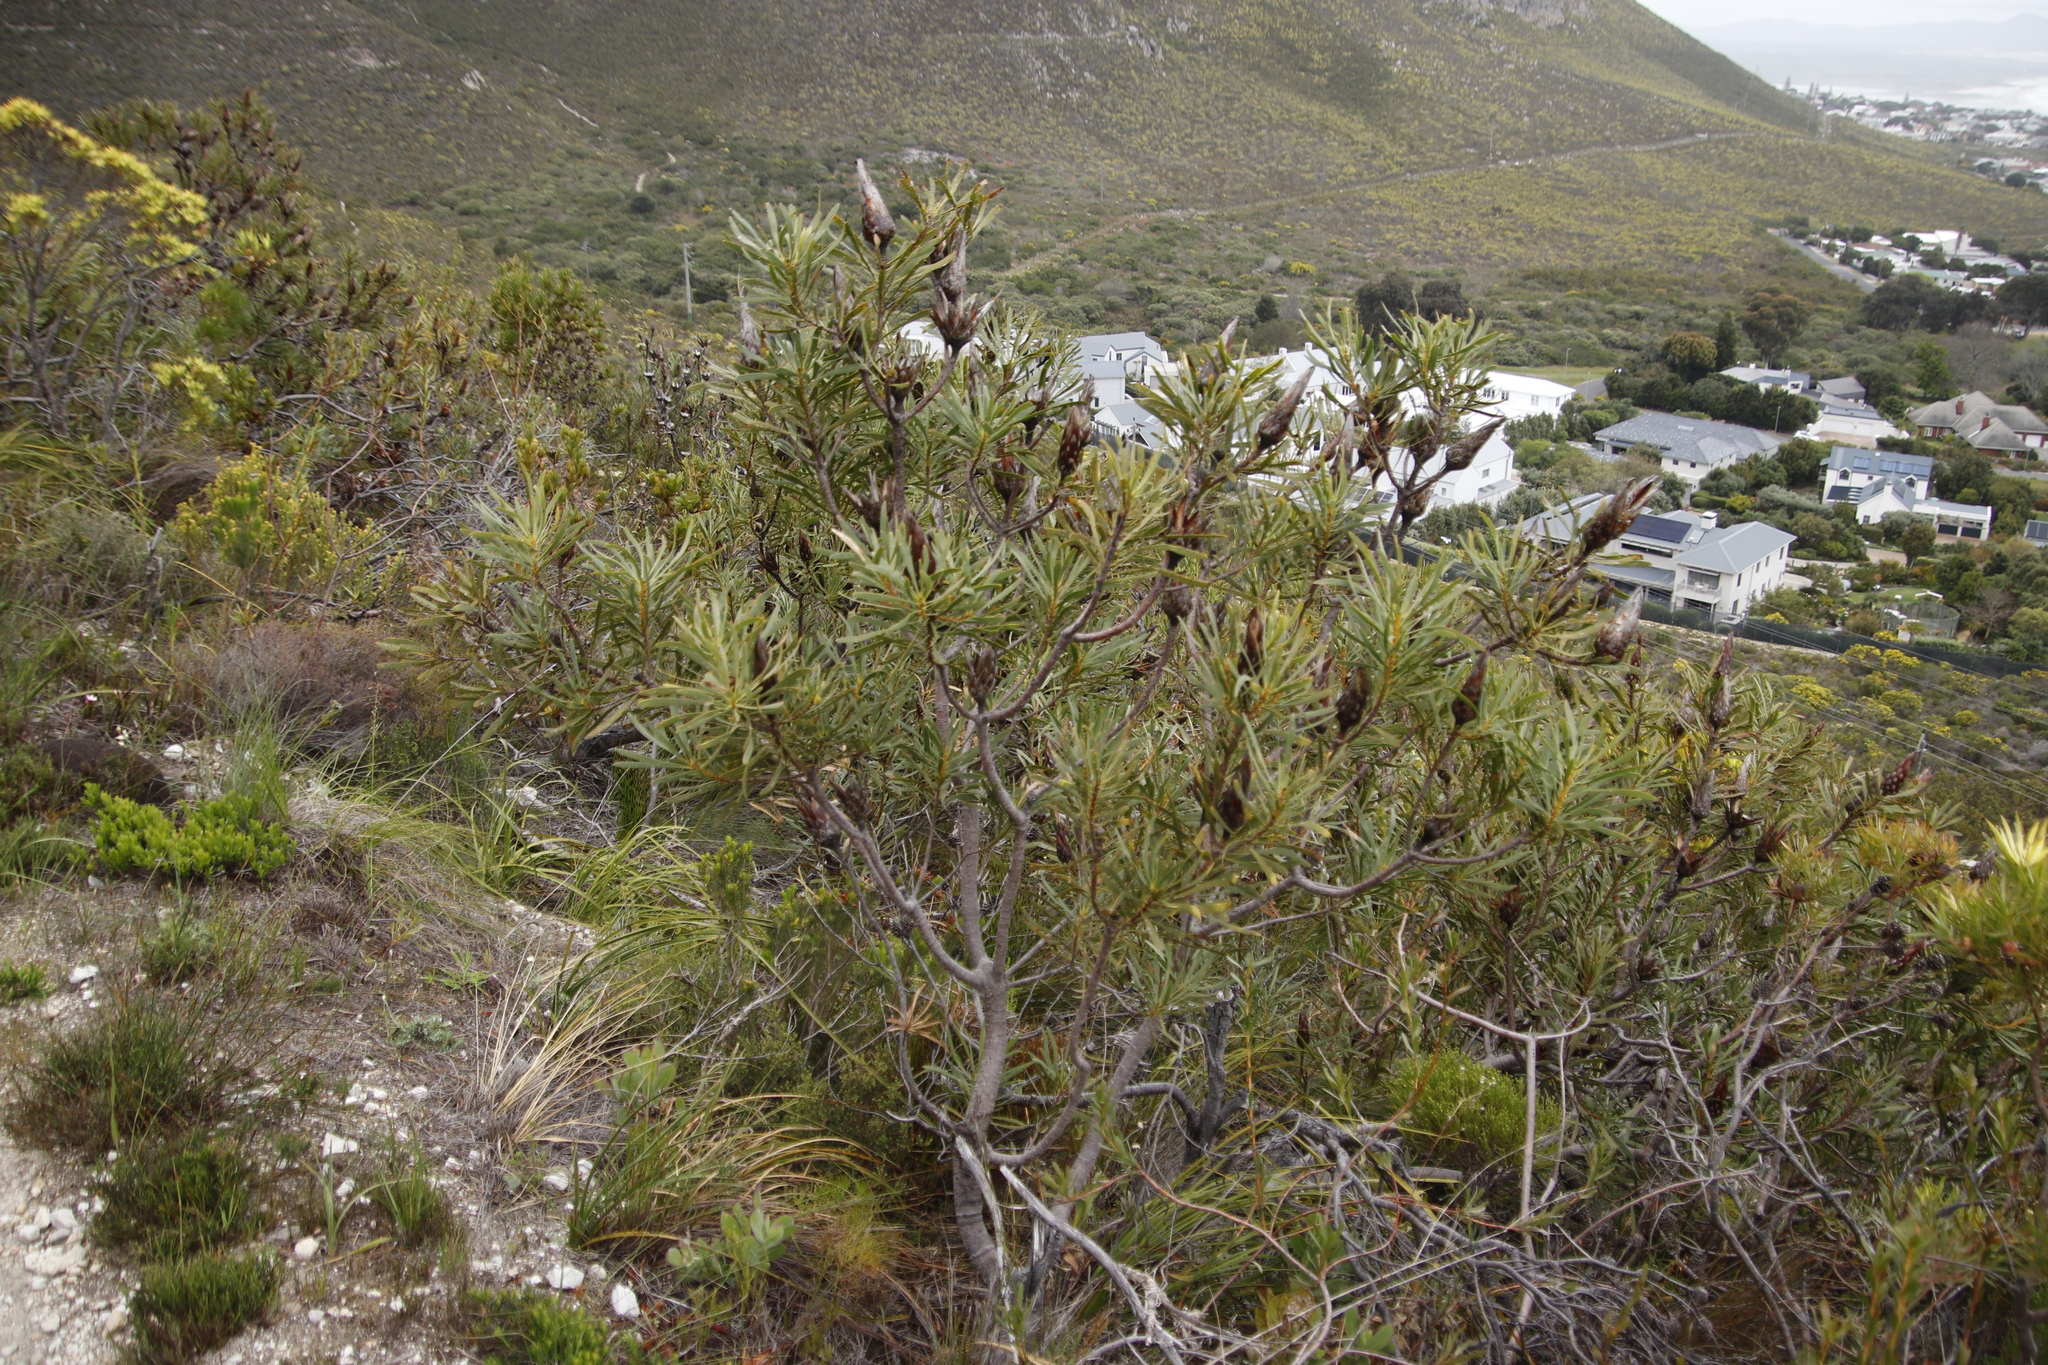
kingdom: Plantae
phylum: Tracheophyta
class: Magnoliopsida
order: Proteales
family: Proteaceae
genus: Protea
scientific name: Protea repens
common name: Sugarbush
